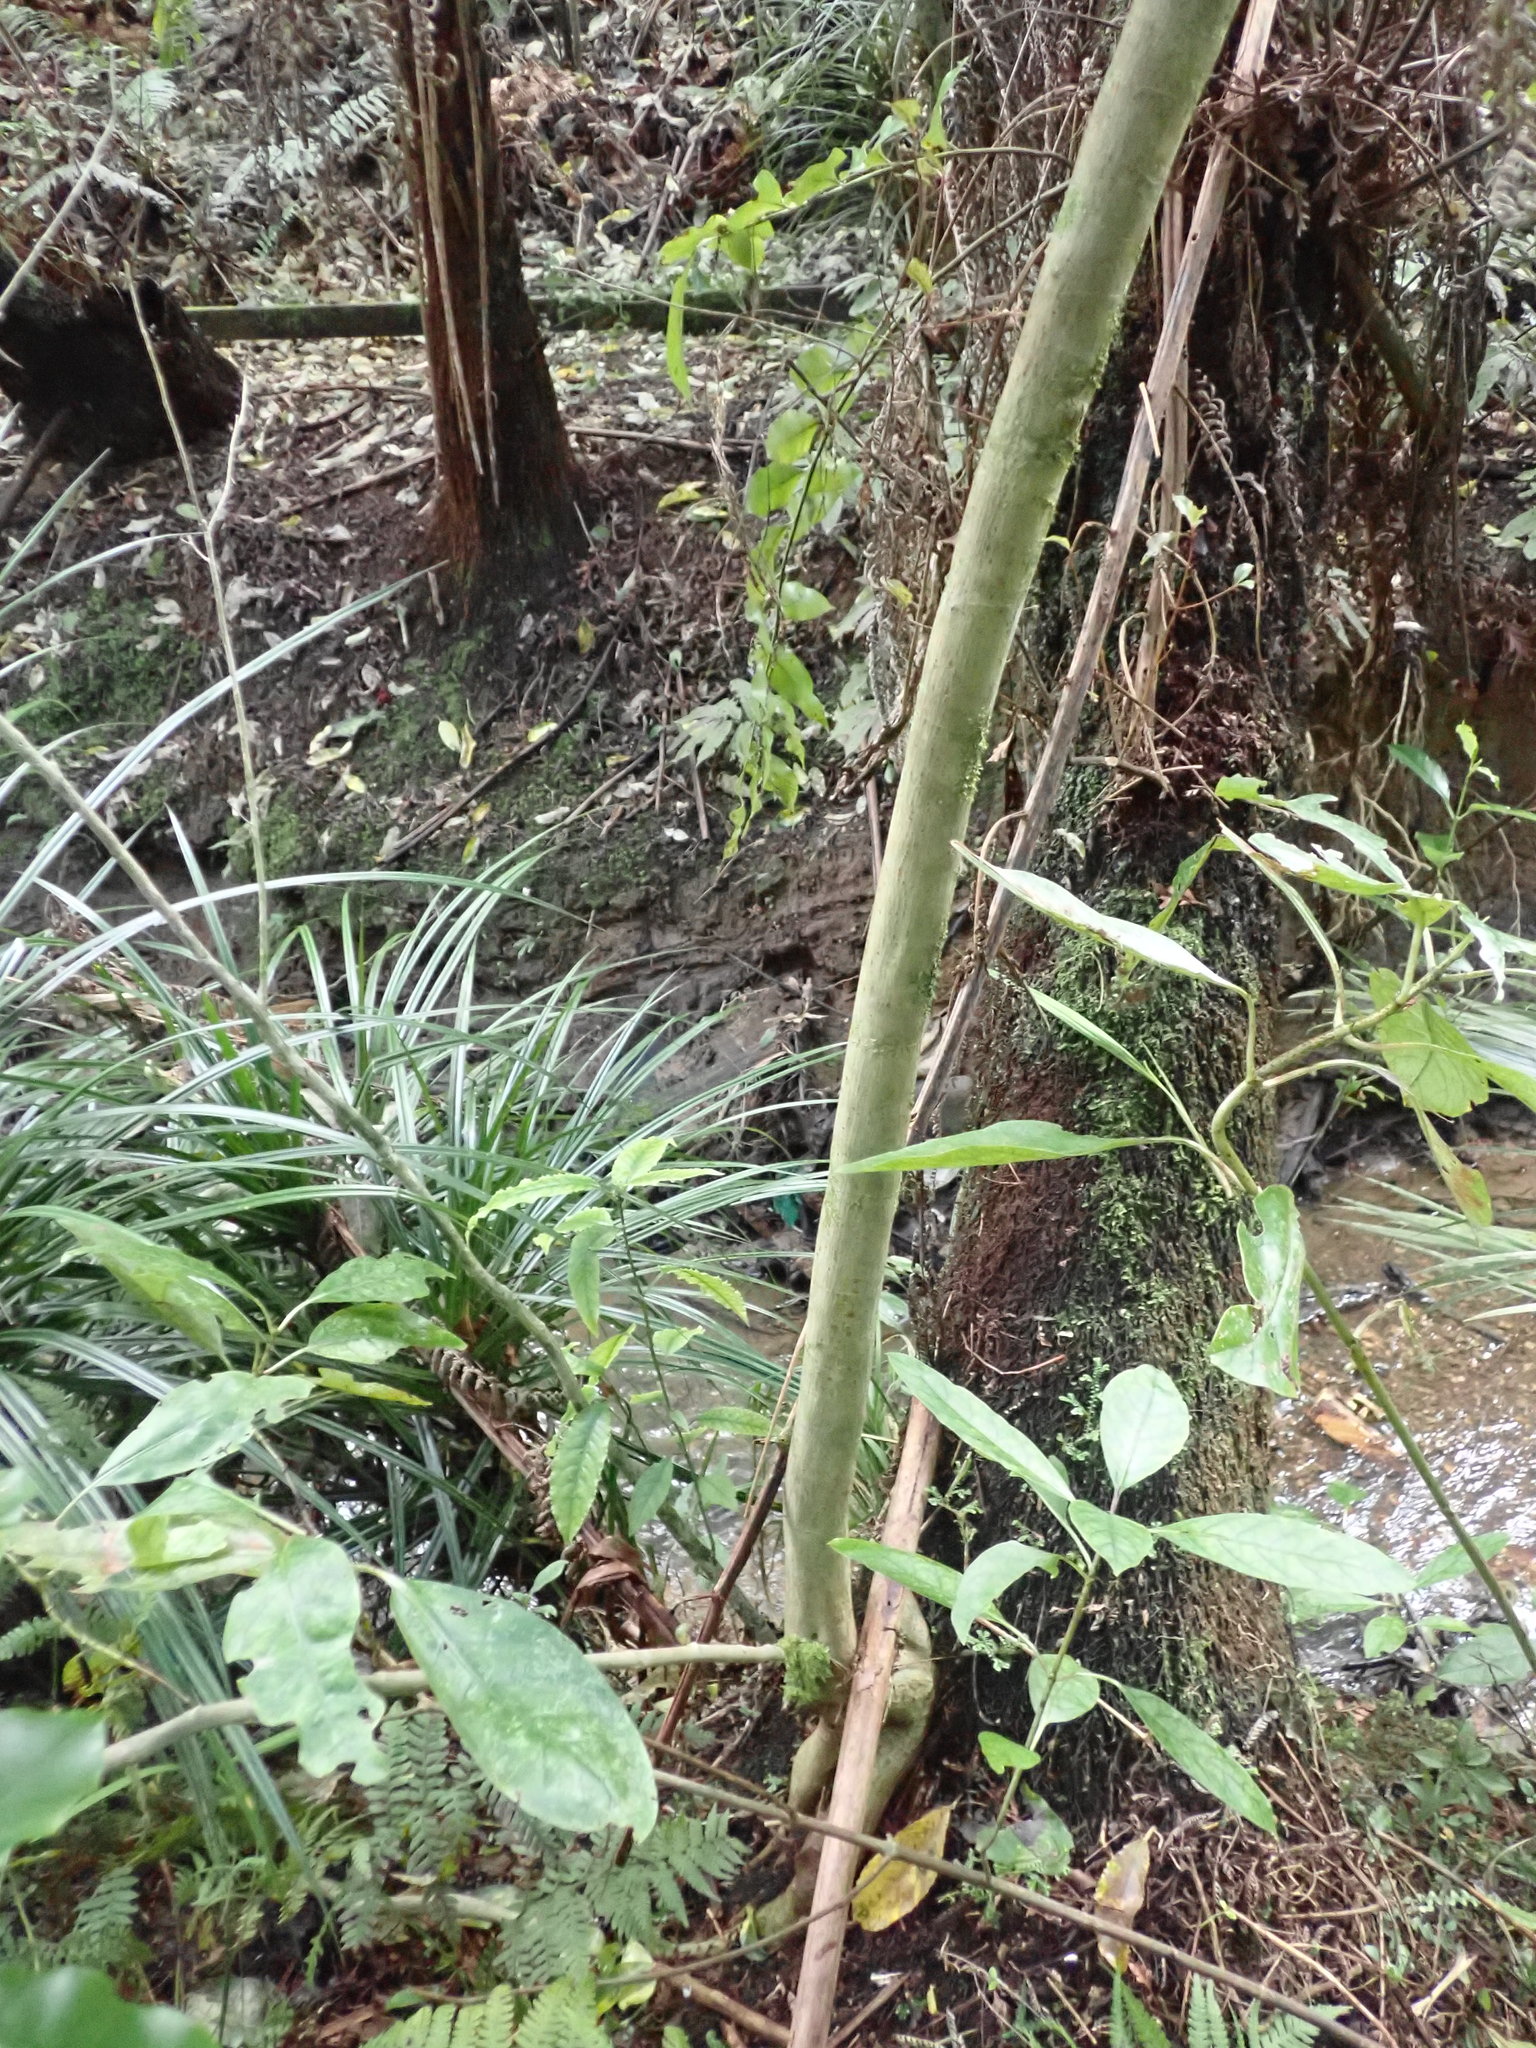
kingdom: Plantae
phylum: Tracheophyta
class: Liliopsida
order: Pandanales
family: Pandanaceae
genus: Freycinetia
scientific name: Freycinetia banksii
